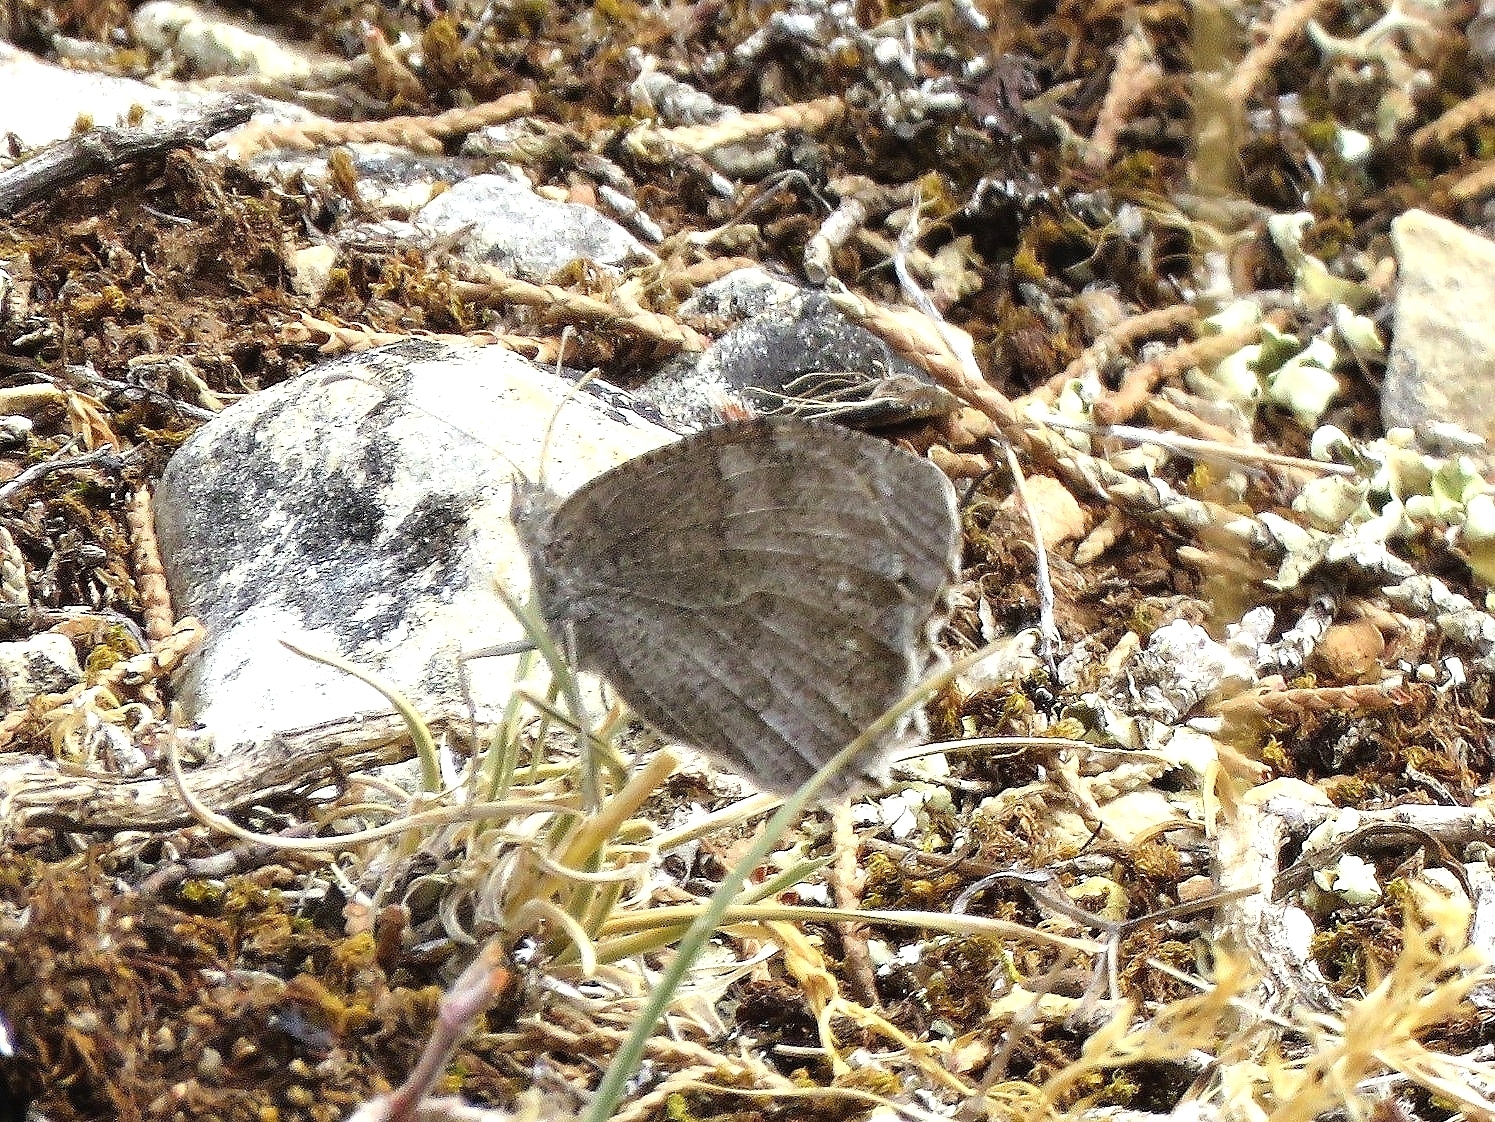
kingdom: Animalia
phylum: Arthropoda
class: Insecta
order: Lepidoptera
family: Nymphalidae
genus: Hipparchia
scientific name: Hipparchia statilinus
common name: Tree grayling
